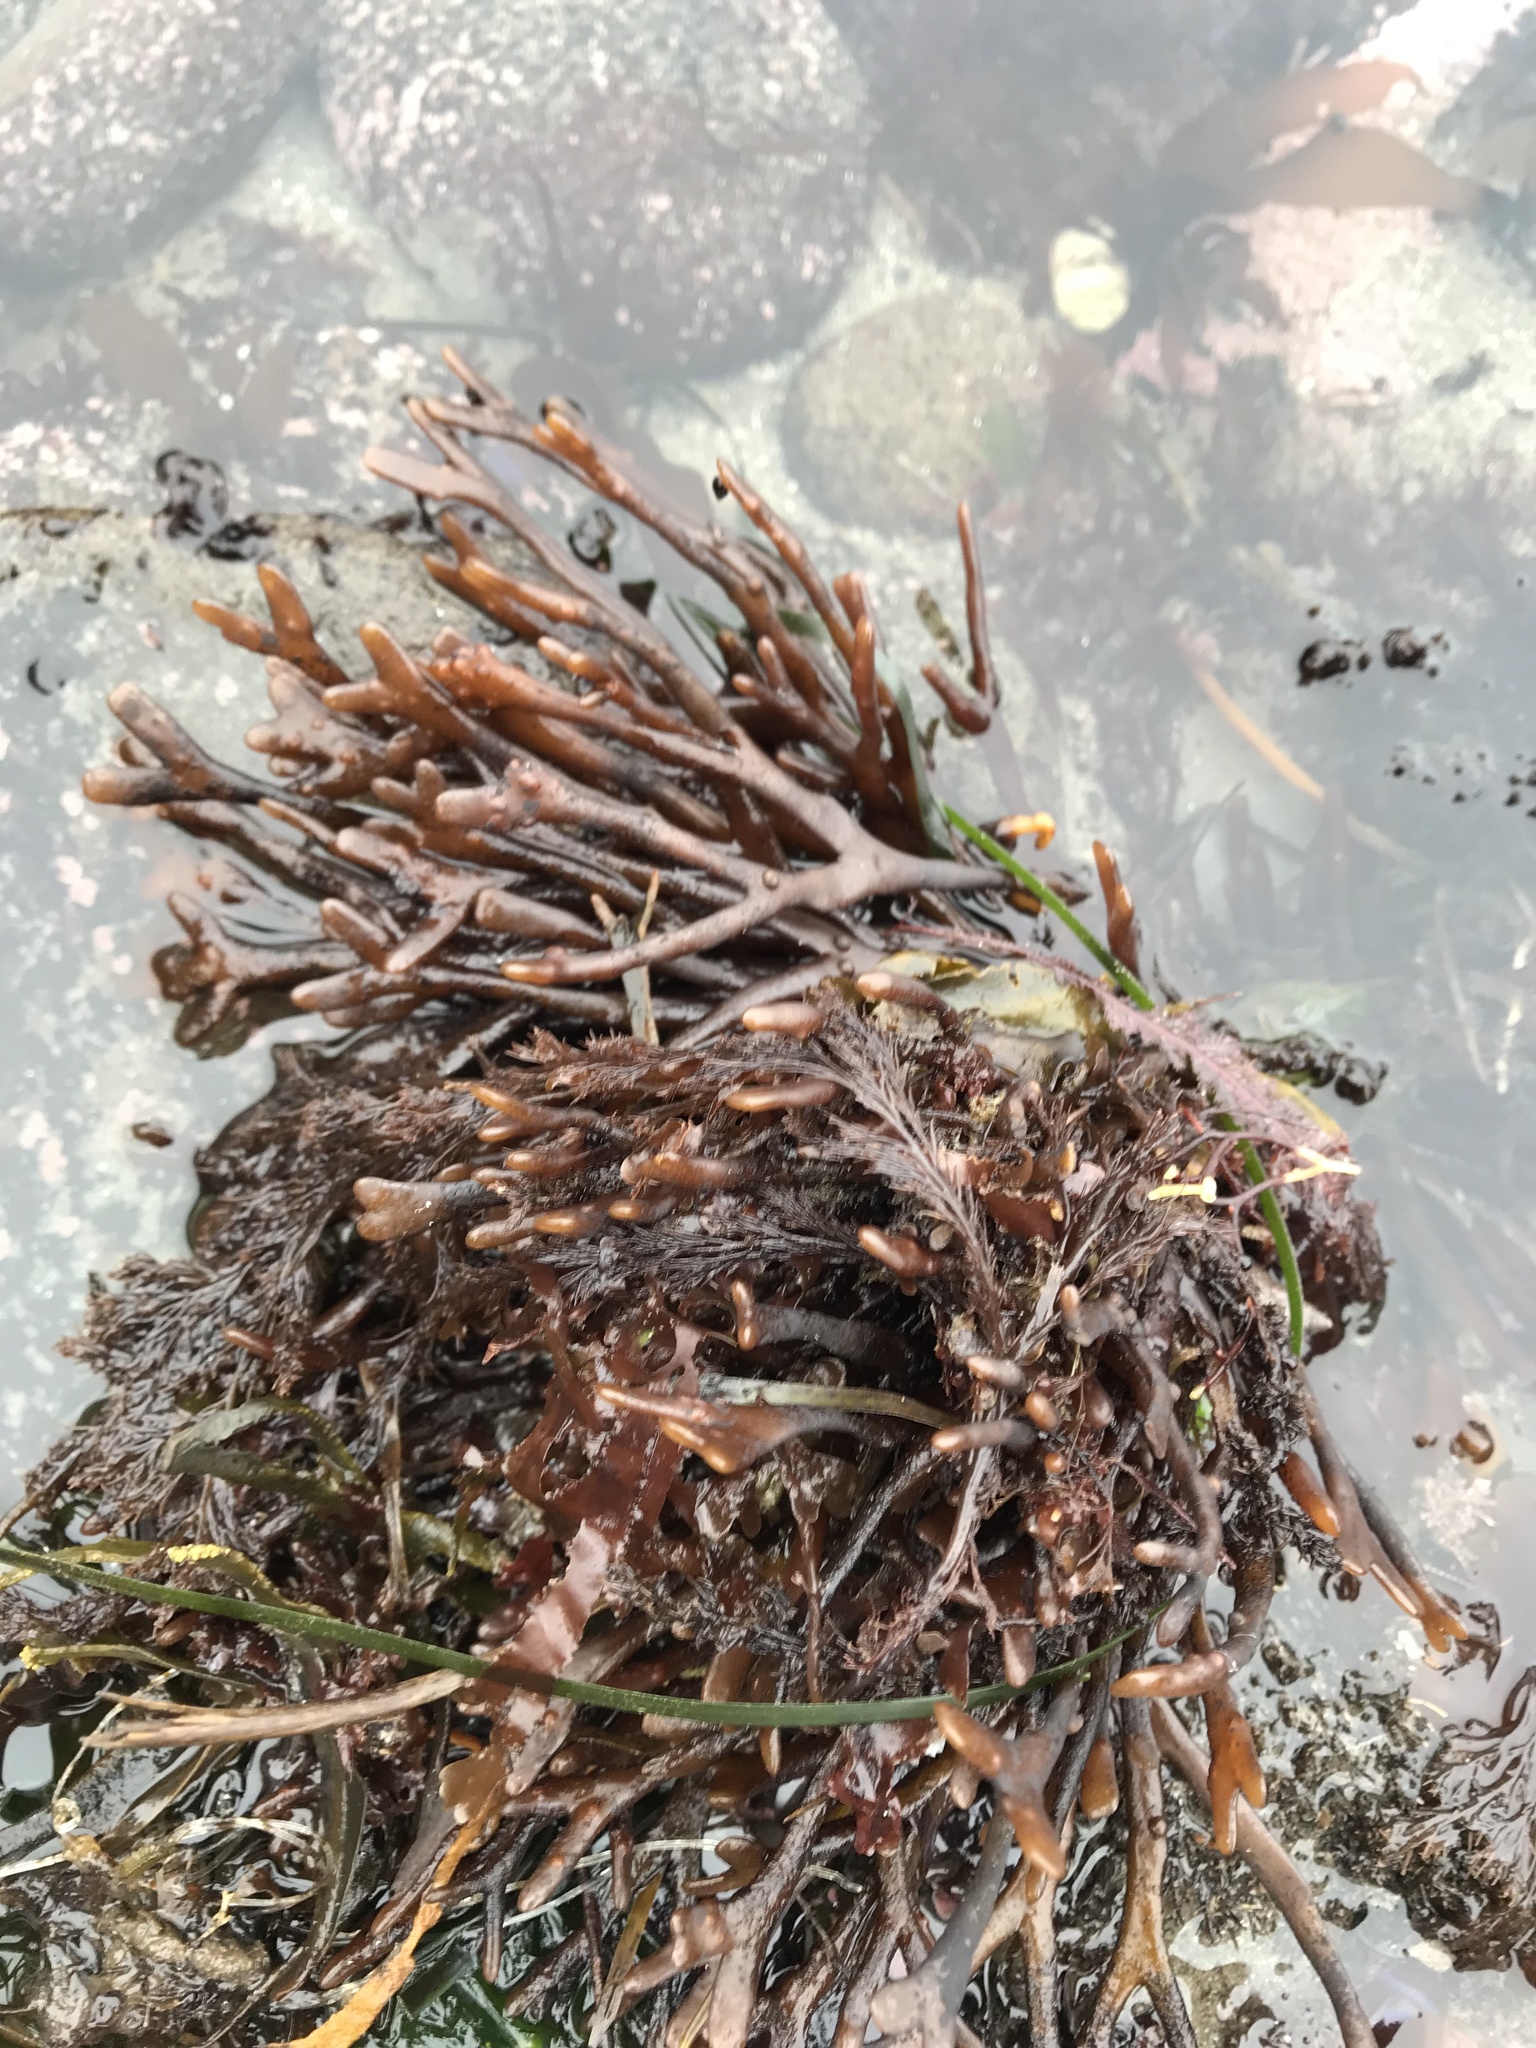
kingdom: Plantae
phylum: Rhodophyta
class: Florideophyceae
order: Gigartinales
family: Phyllophoraceae
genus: Ahnfeltiopsis
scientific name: Ahnfeltiopsis linearis
